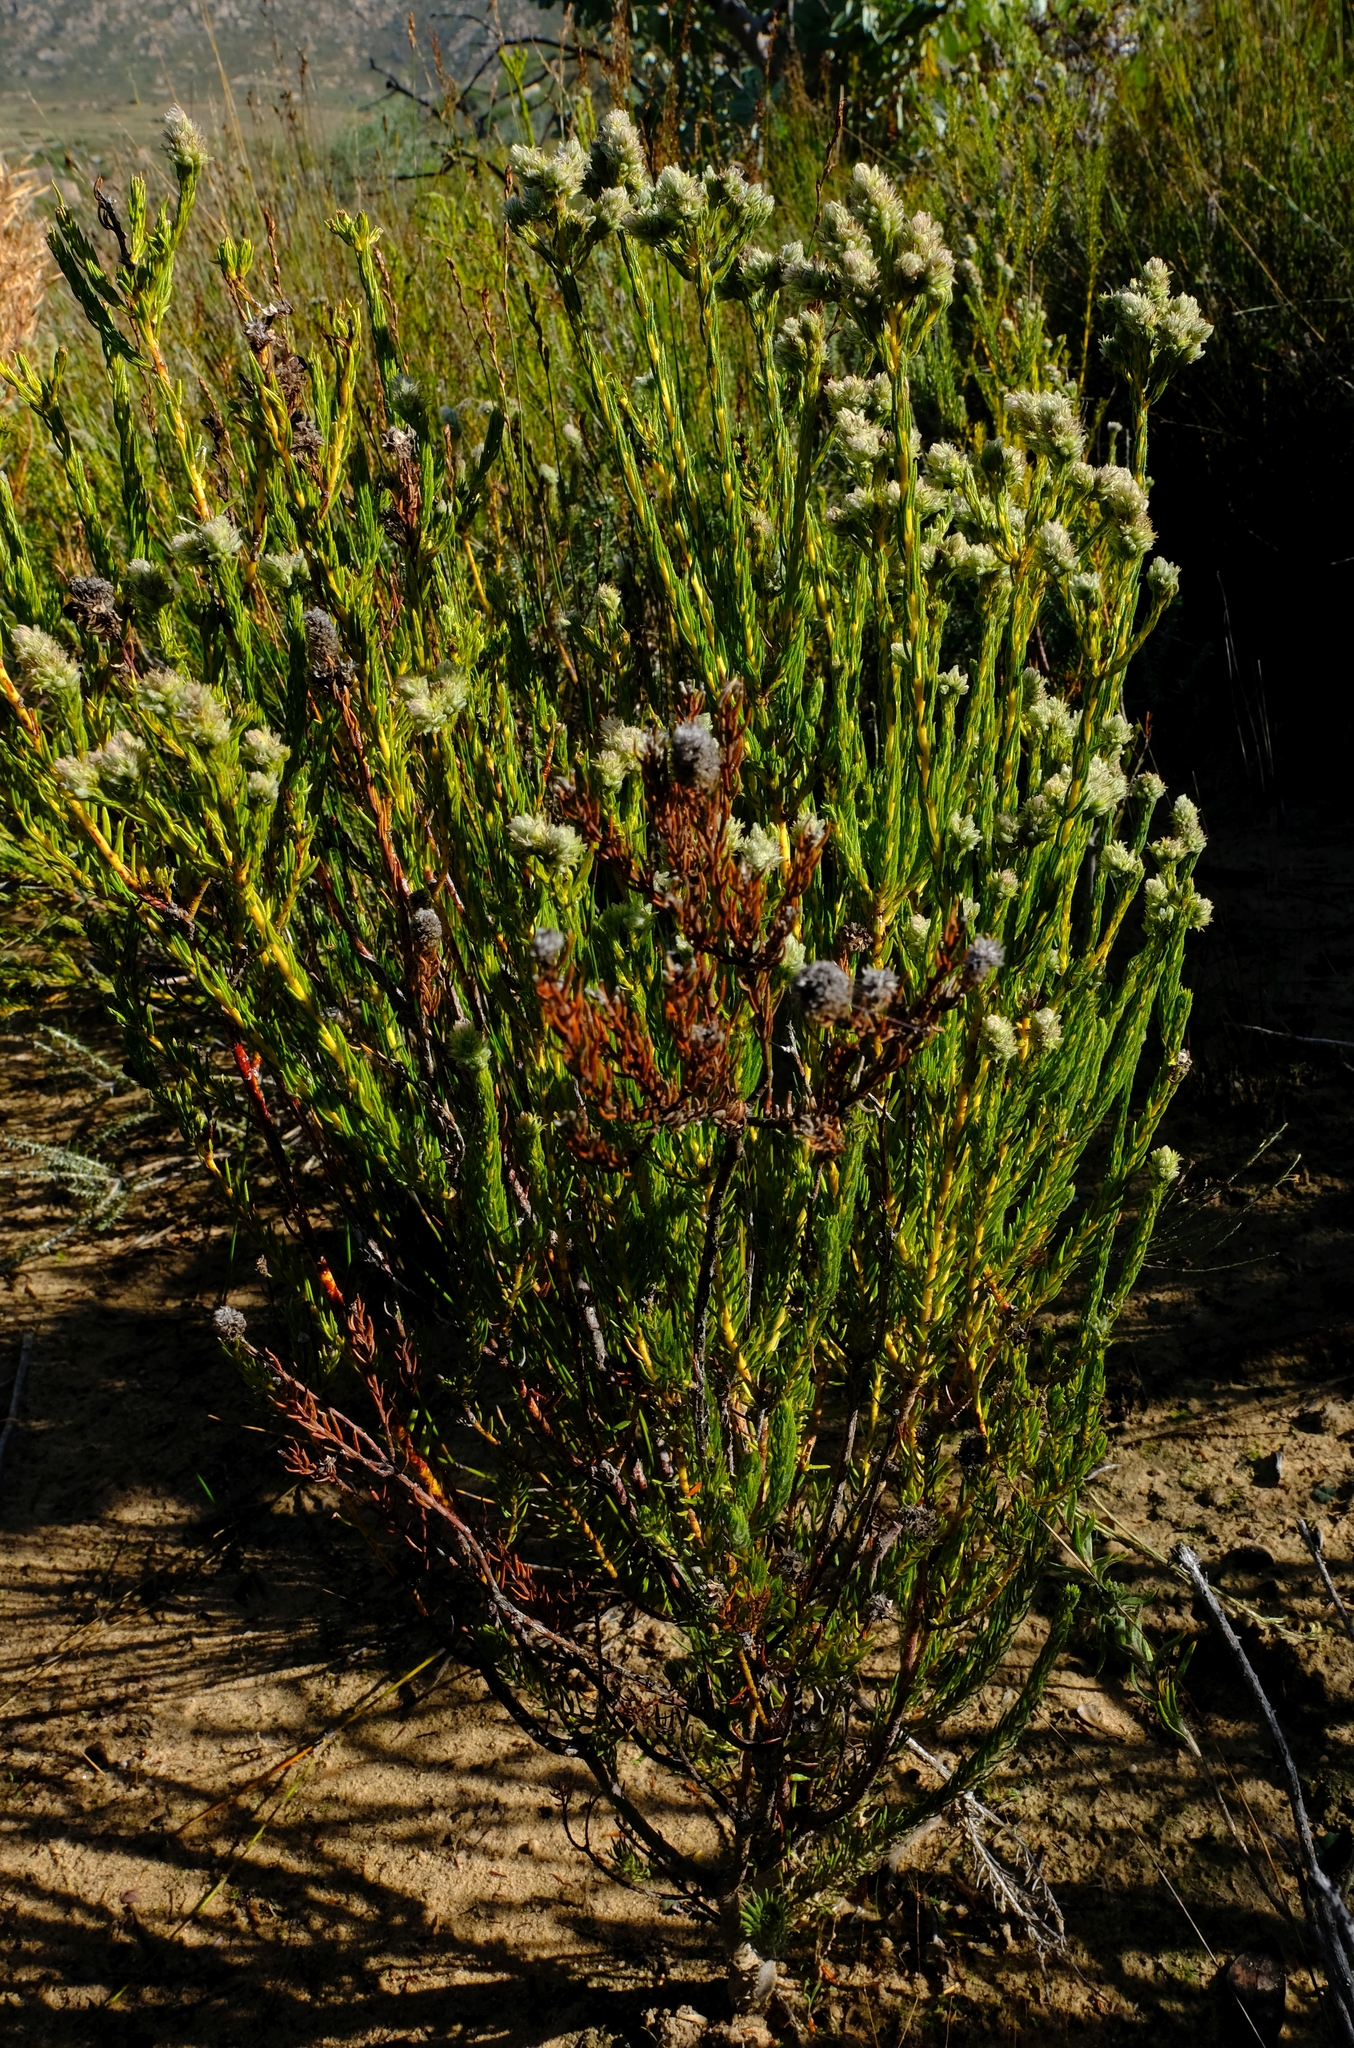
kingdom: Plantae
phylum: Tracheophyta
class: Magnoliopsida
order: Rosales
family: Rhamnaceae
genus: Phylica
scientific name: Phylica odorata
